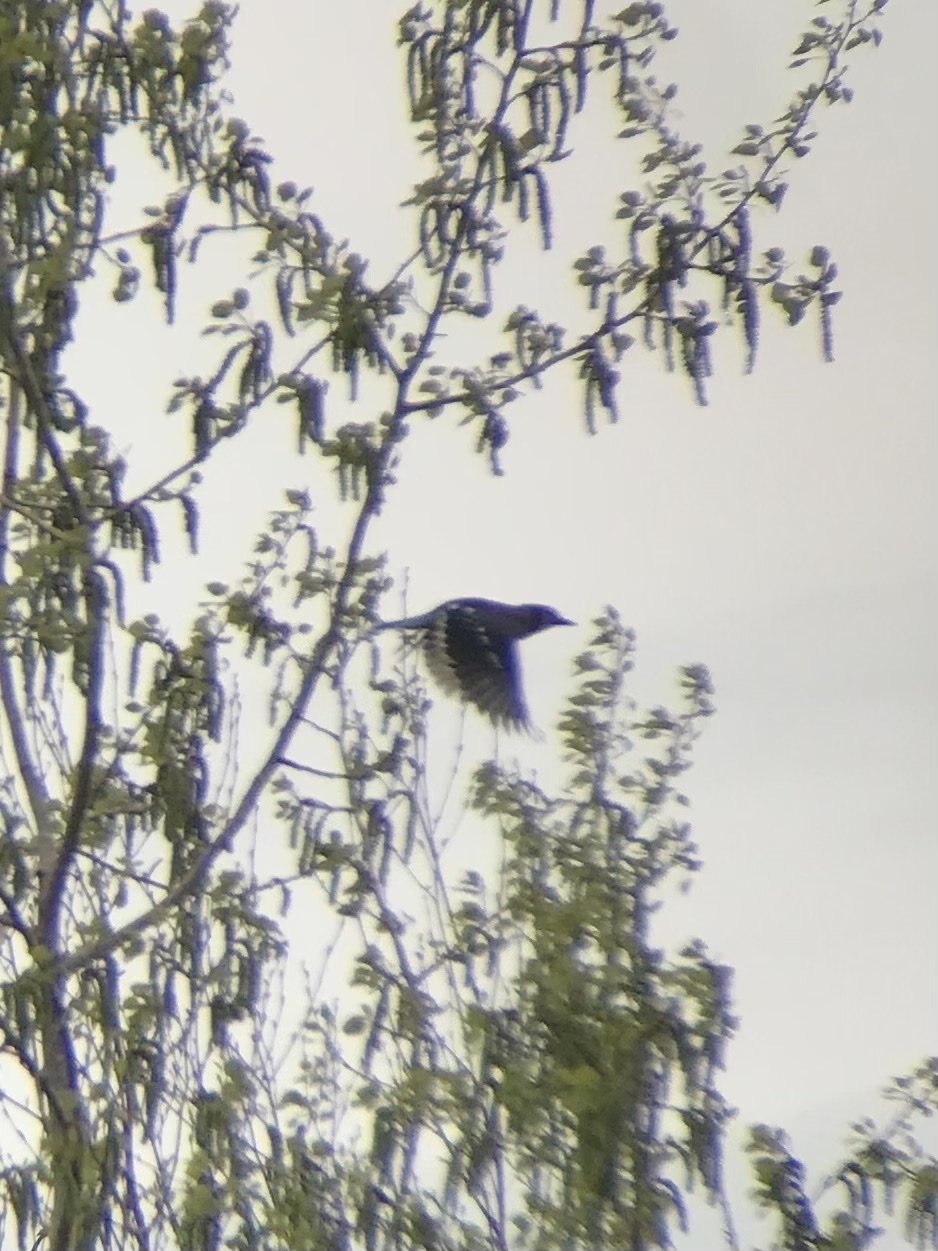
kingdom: Animalia
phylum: Chordata
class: Aves
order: Passeriformes
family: Corvidae
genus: Cyanocitta
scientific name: Cyanocitta cristata
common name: Blue jay
